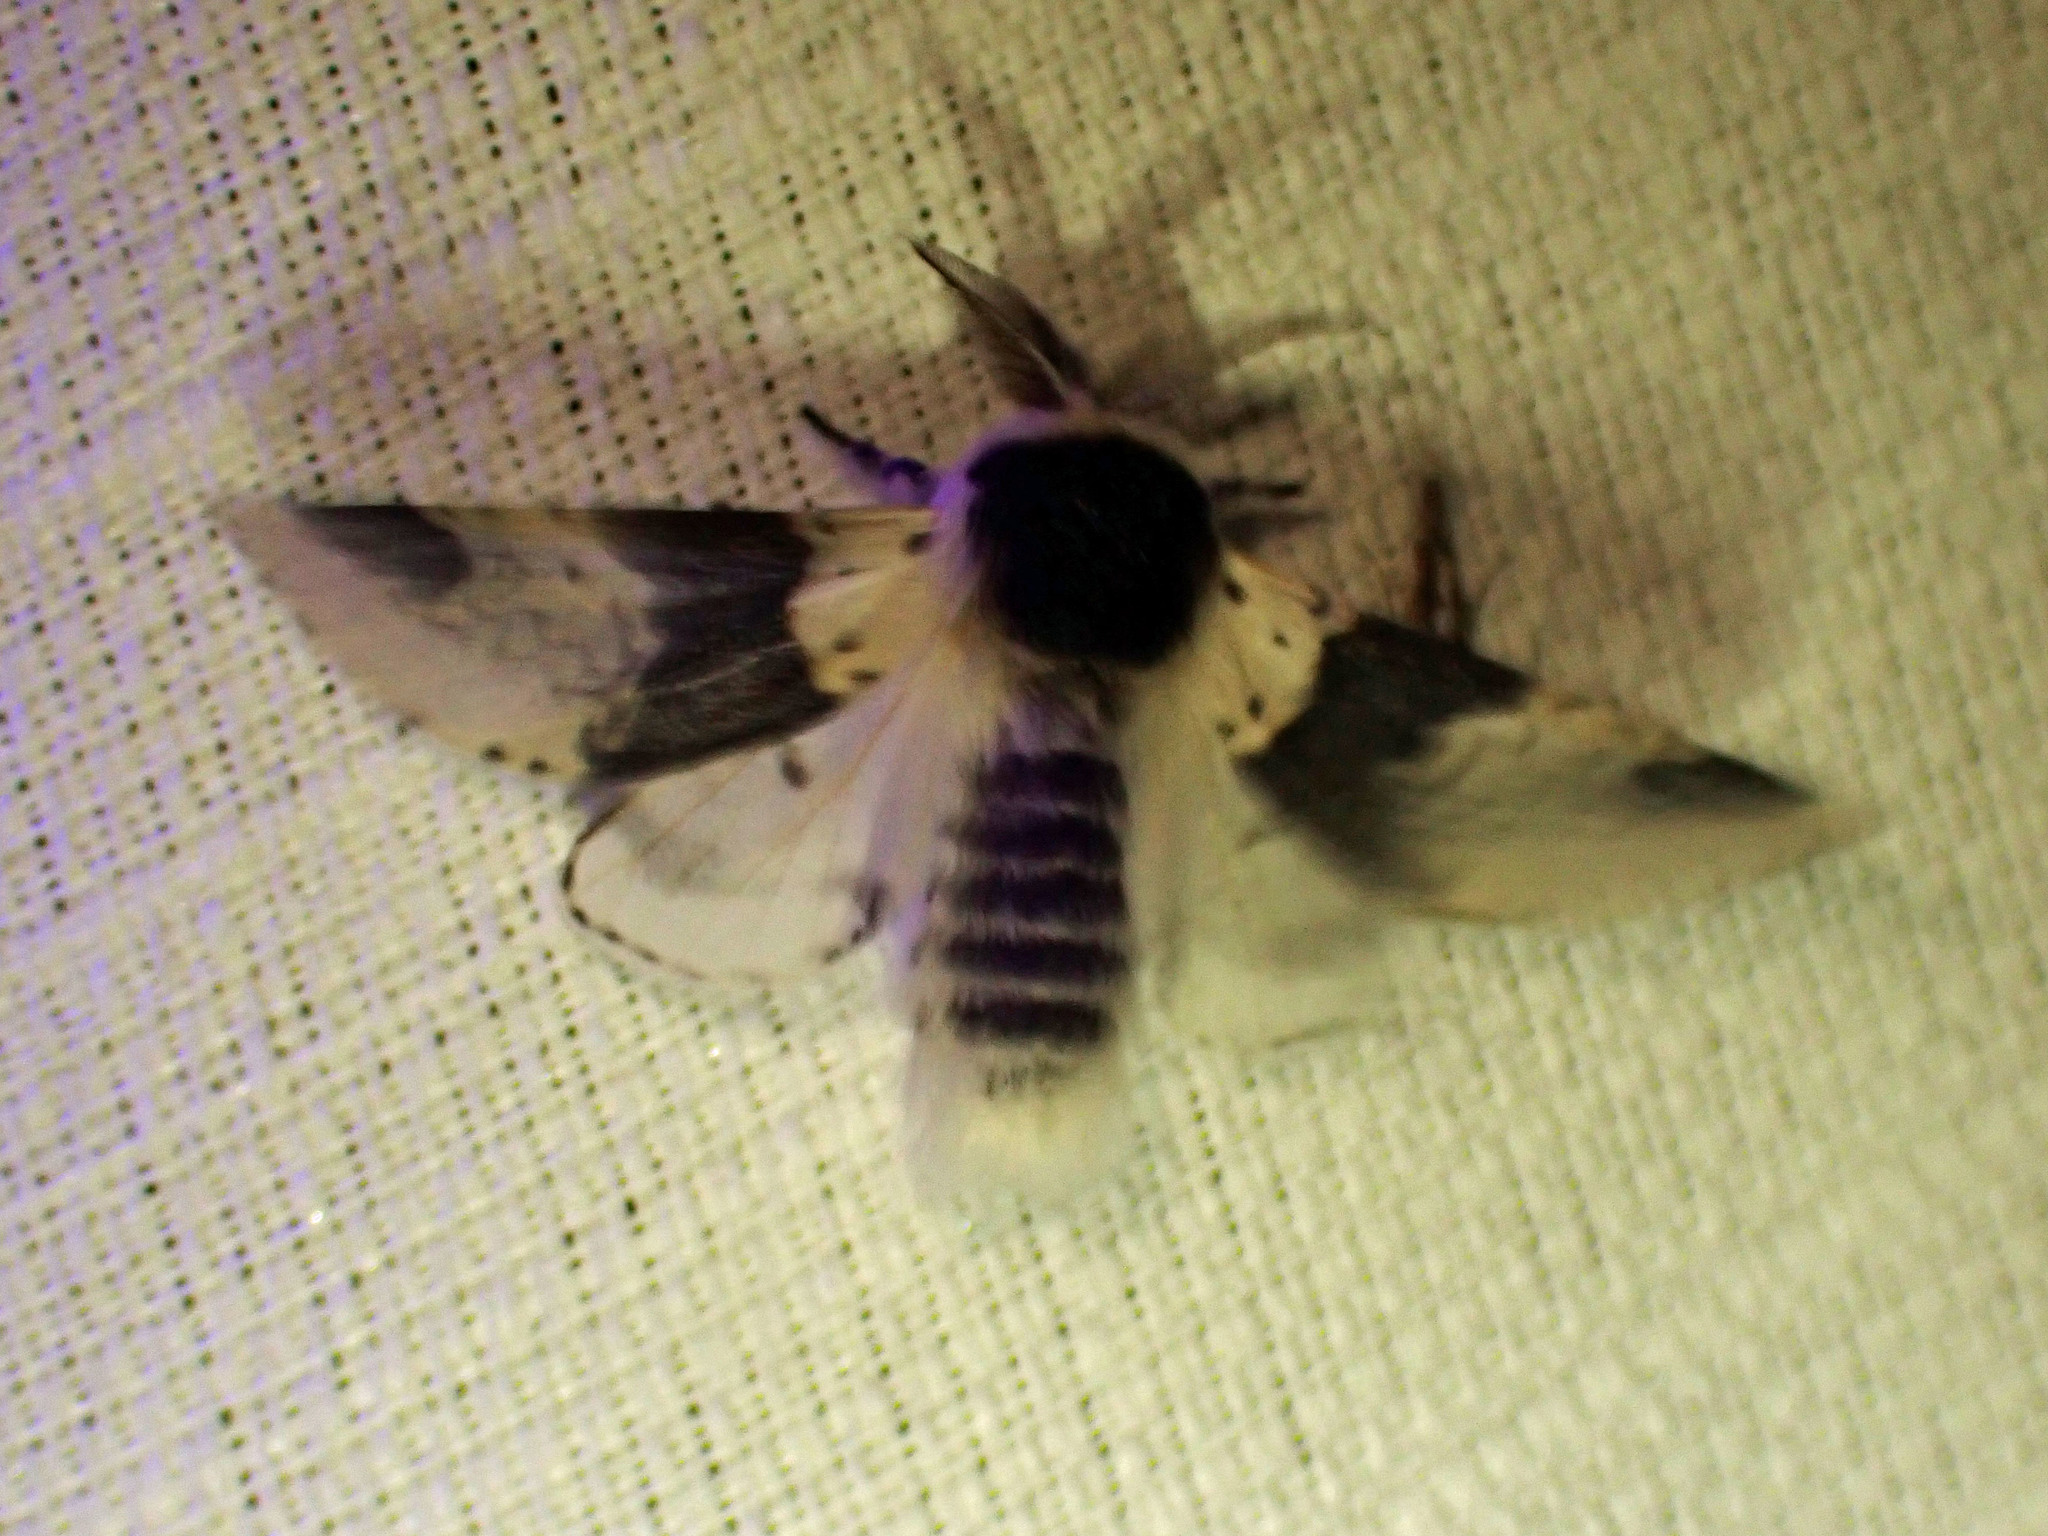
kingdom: Animalia
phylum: Arthropoda
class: Insecta
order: Lepidoptera
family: Notodontidae
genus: Furcula
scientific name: Furcula modesta
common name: Modest furcula moth
